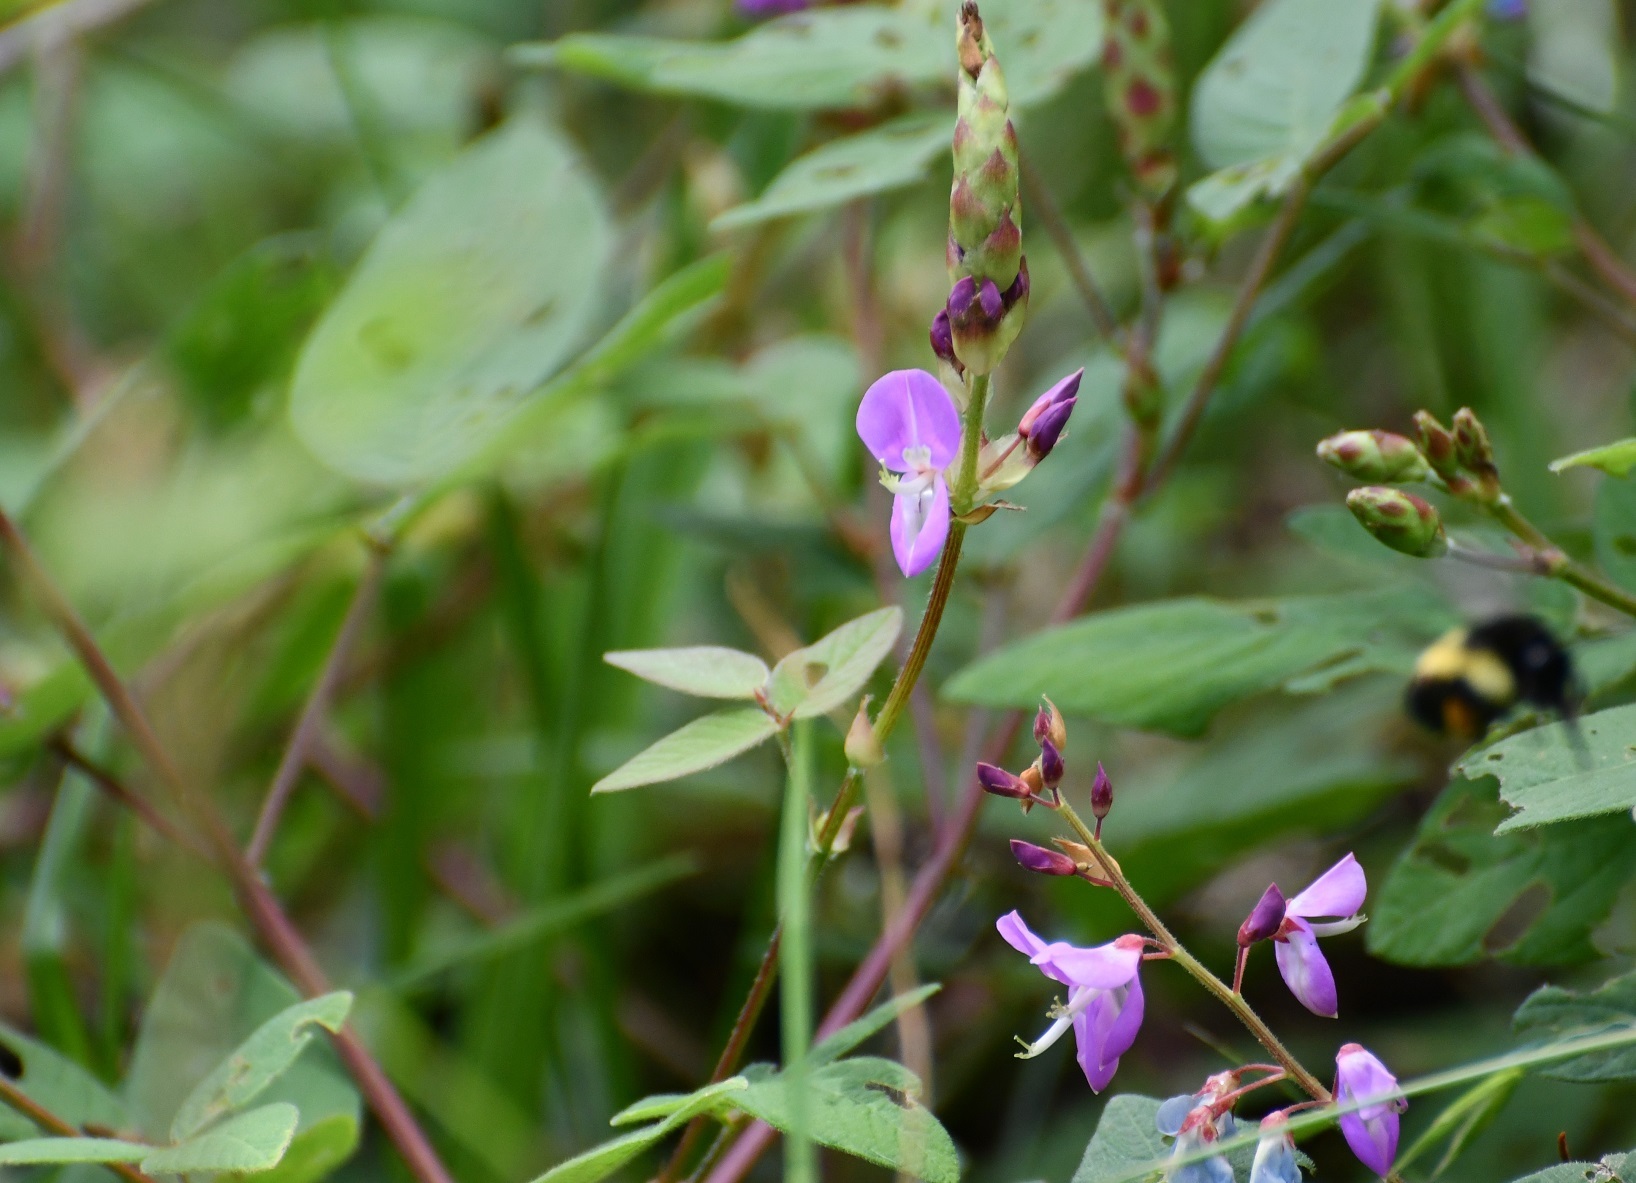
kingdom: Plantae
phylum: Tracheophyta
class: Magnoliopsida
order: Fabales
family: Fabaceae
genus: Desmodium
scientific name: Desmodium pringlei
